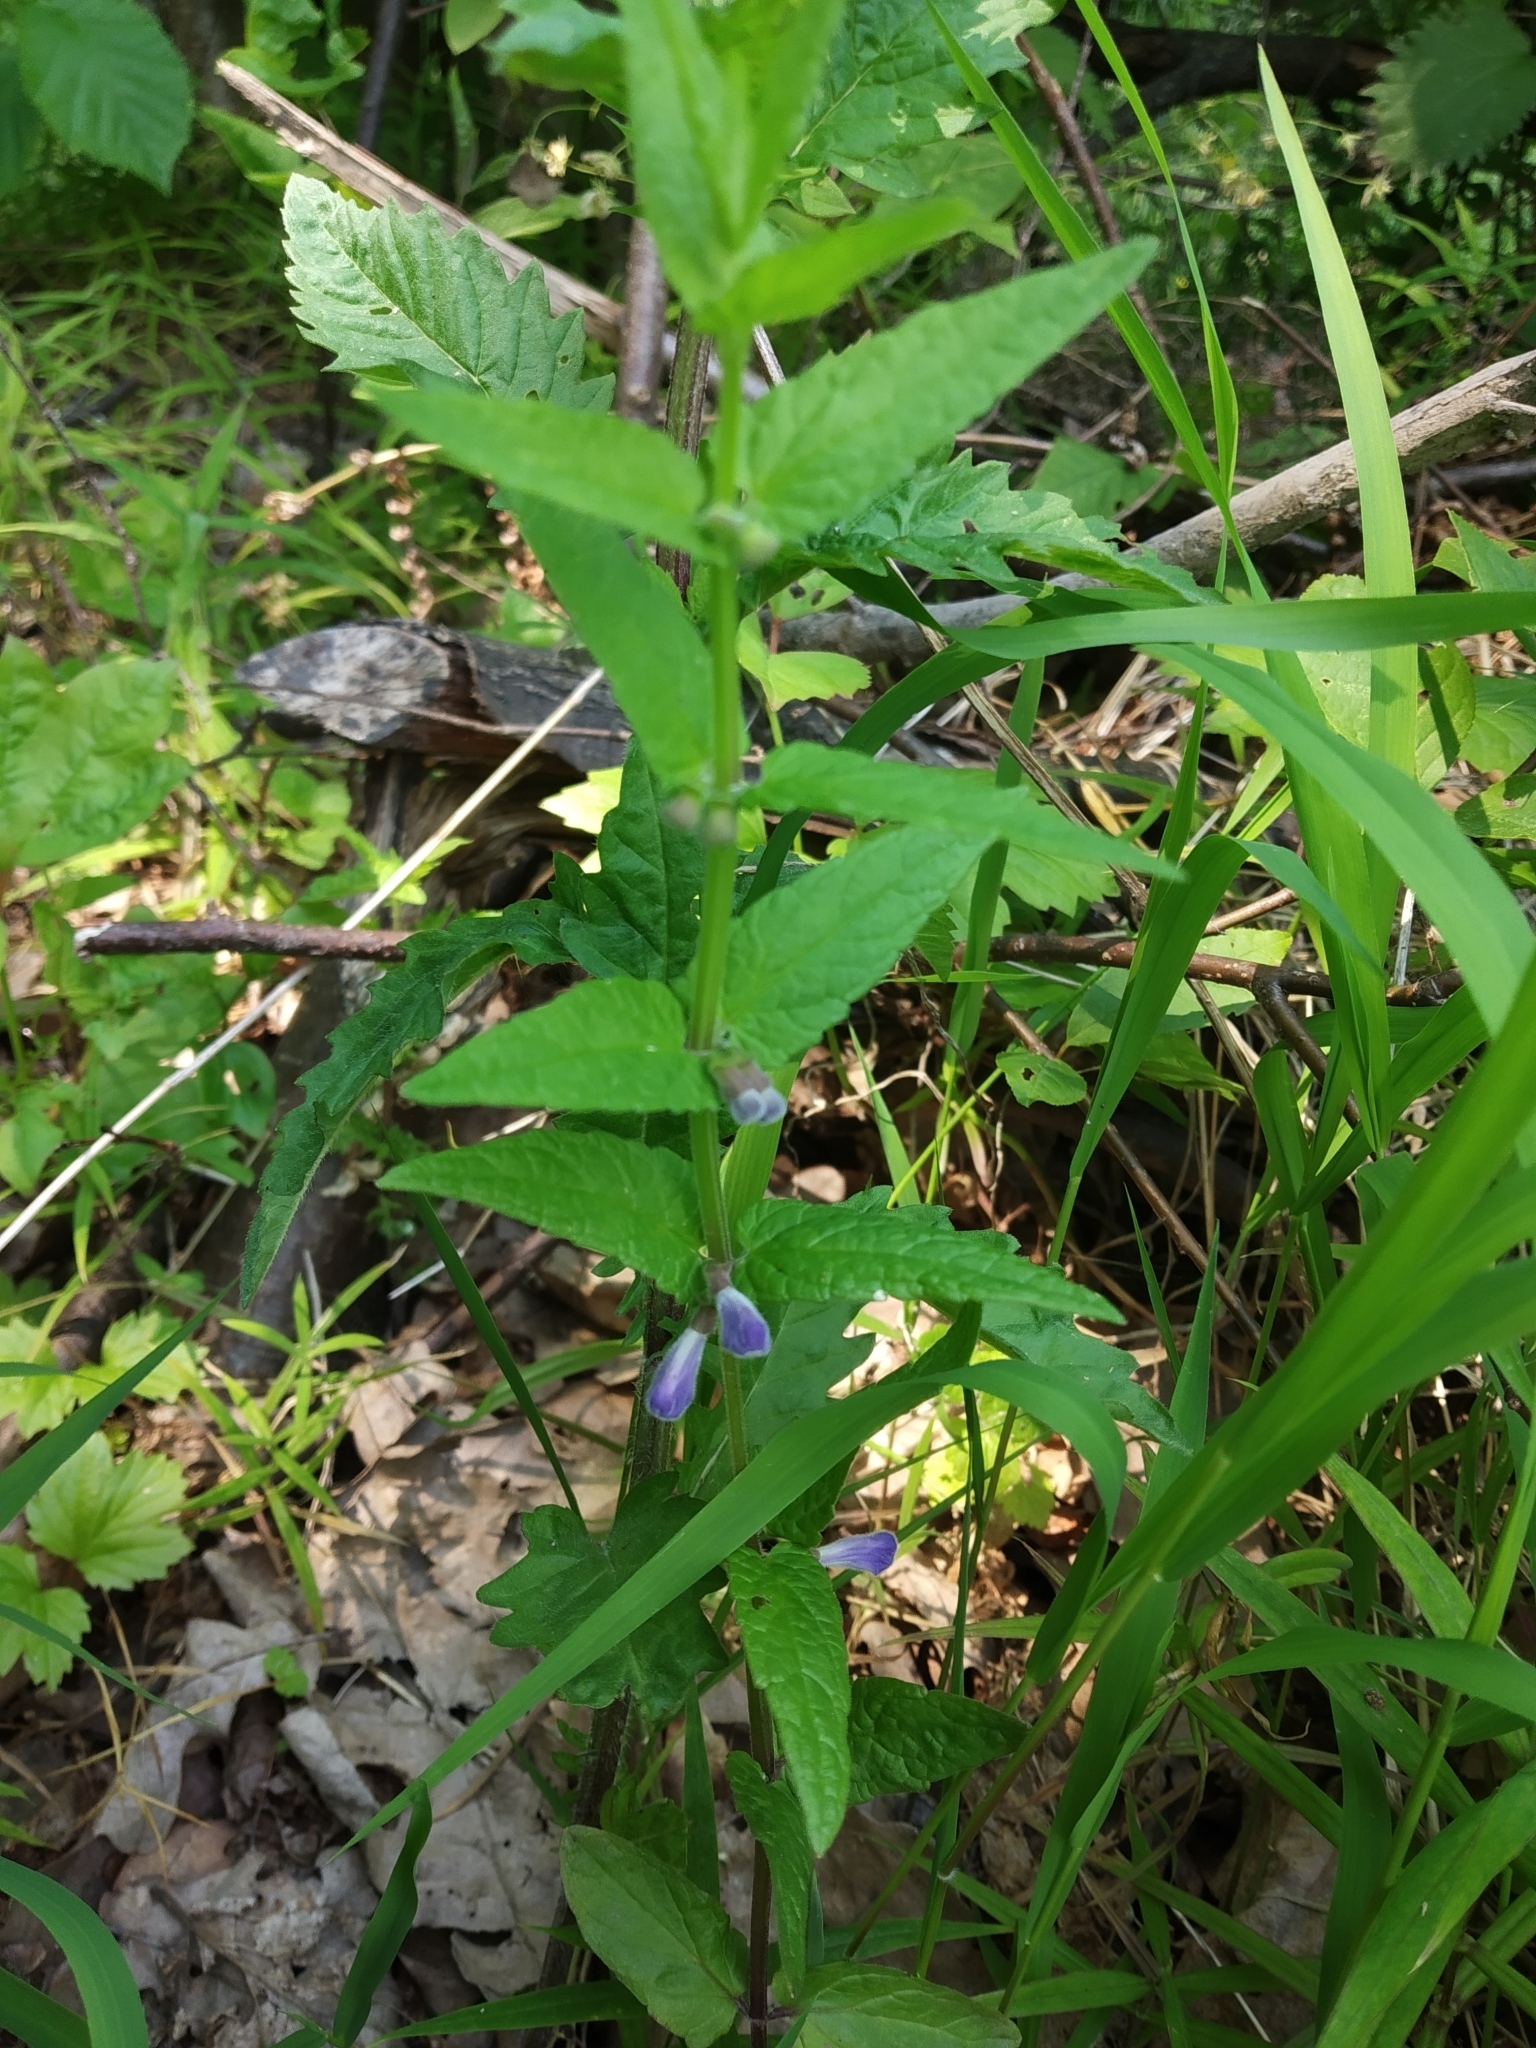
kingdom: Plantae
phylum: Tracheophyta
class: Magnoliopsida
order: Lamiales
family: Lamiaceae
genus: Scutellaria
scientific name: Scutellaria galericulata
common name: Skullcap
